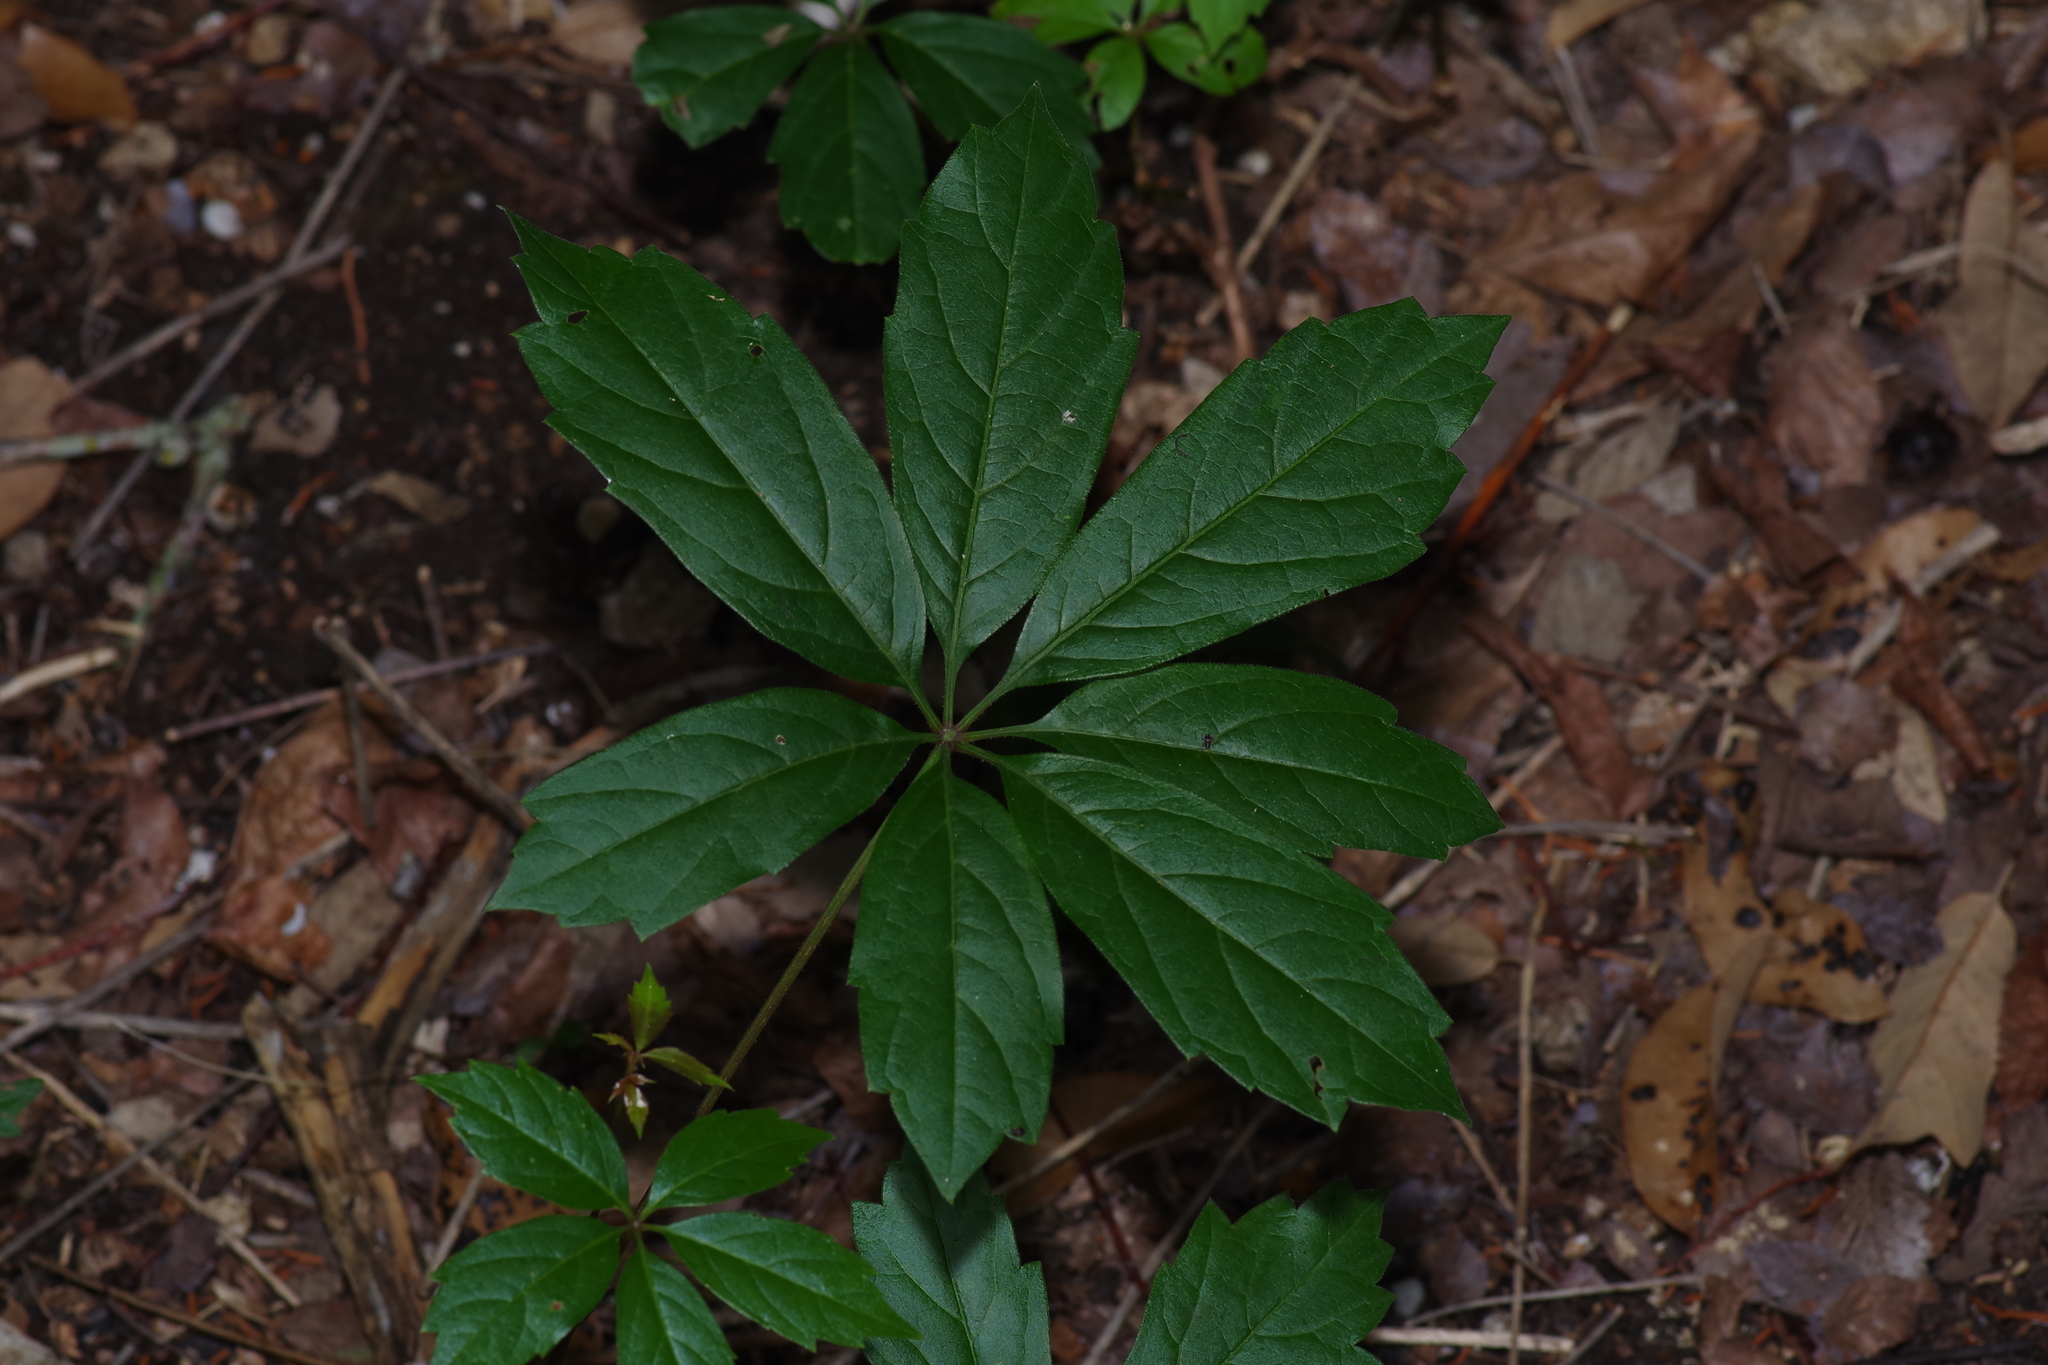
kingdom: Plantae
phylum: Tracheophyta
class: Magnoliopsida
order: Vitales
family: Vitaceae
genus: Parthenocissus
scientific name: Parthenocissus heptaphylla
